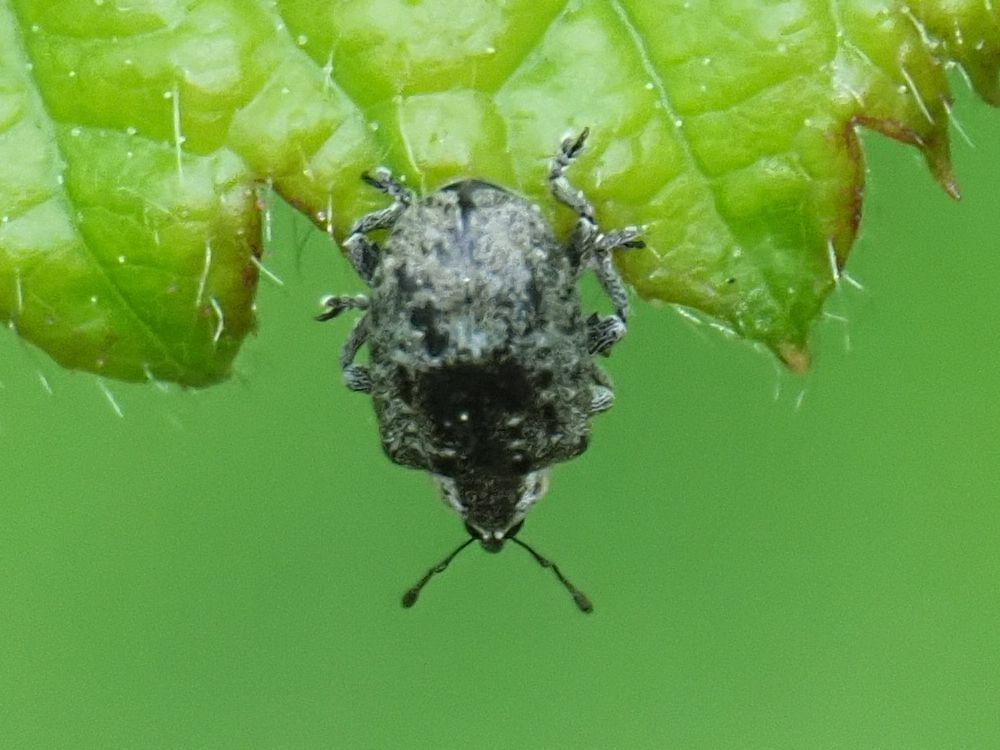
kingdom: Animalia
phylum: Arthropoda
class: Insecta
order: Coleoptera
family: Curculionidae
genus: Stereonychus
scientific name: Stereonychus fraxini
